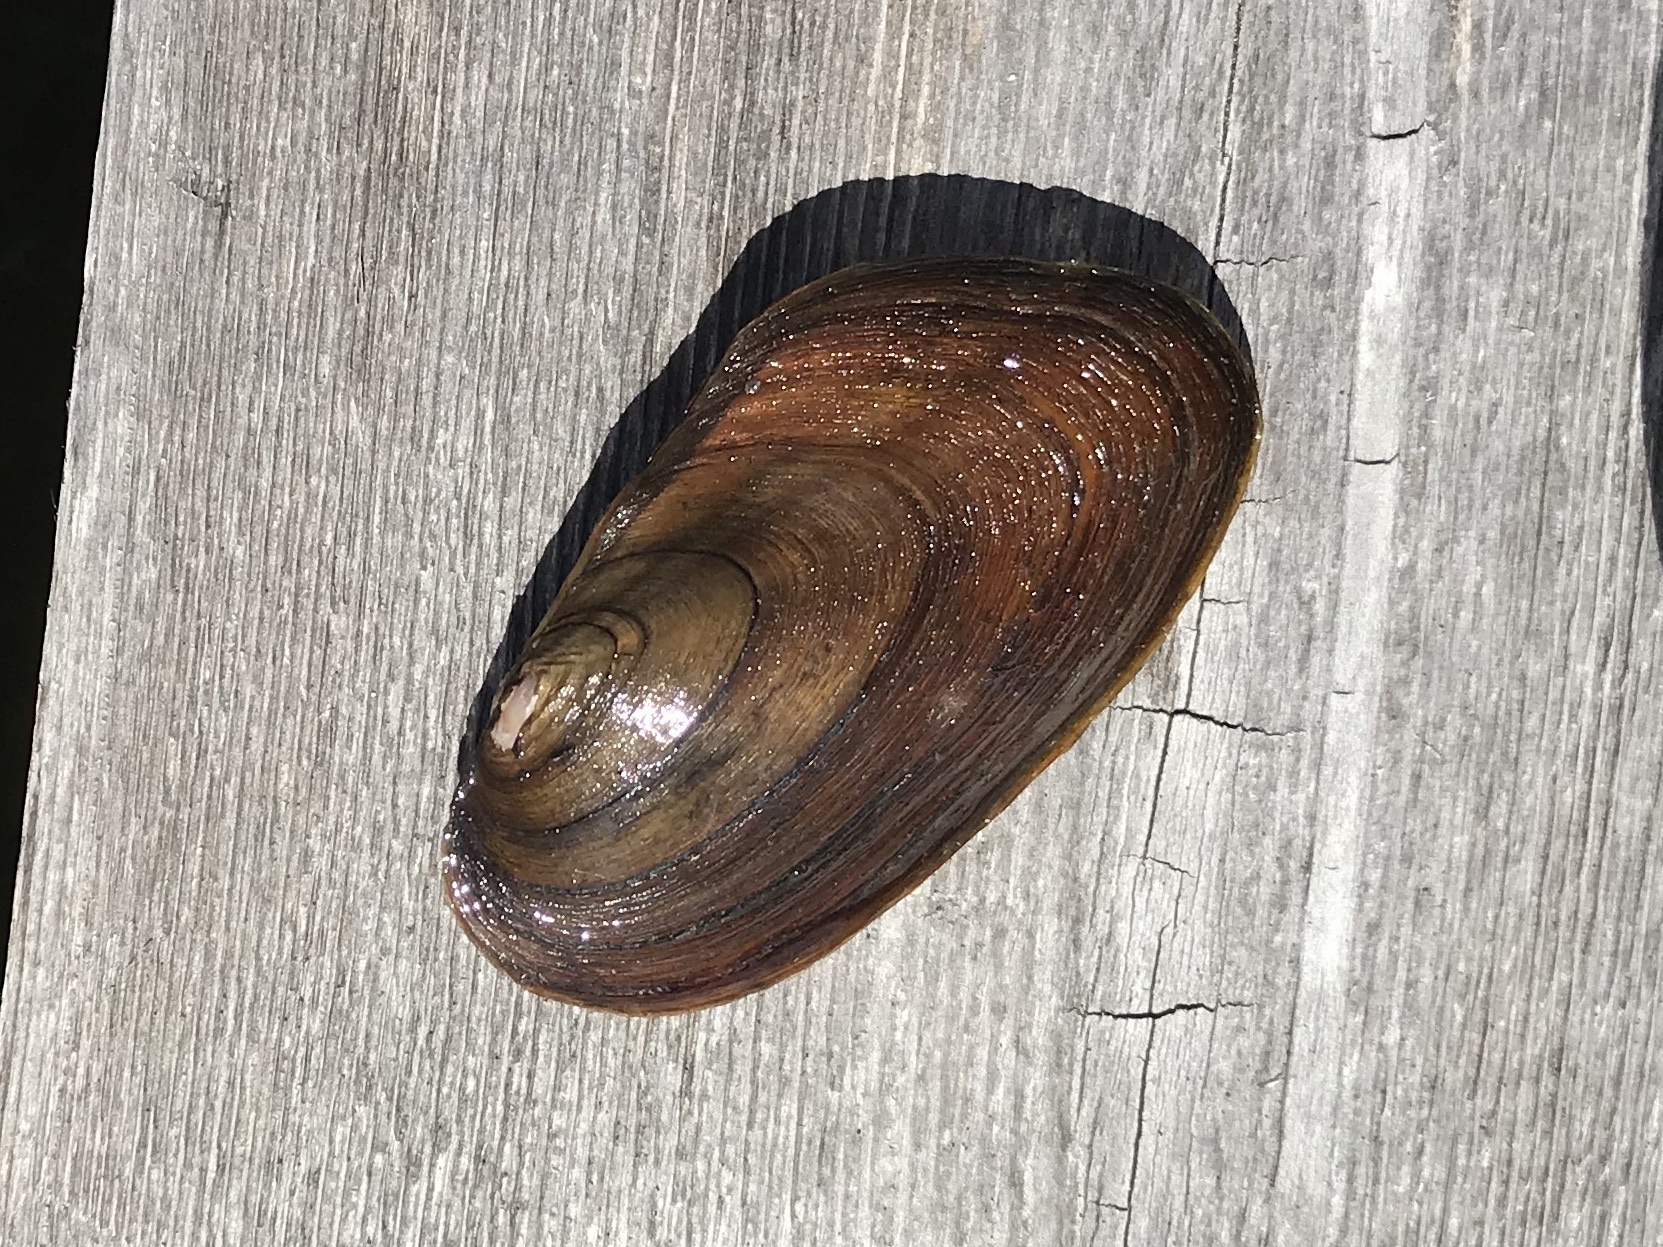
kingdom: Animalia
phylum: Mollusca
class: Bivalvia
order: Unionida
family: Unionidae
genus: Elliptio
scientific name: Elliptio complanata
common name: Eastern elliptio
